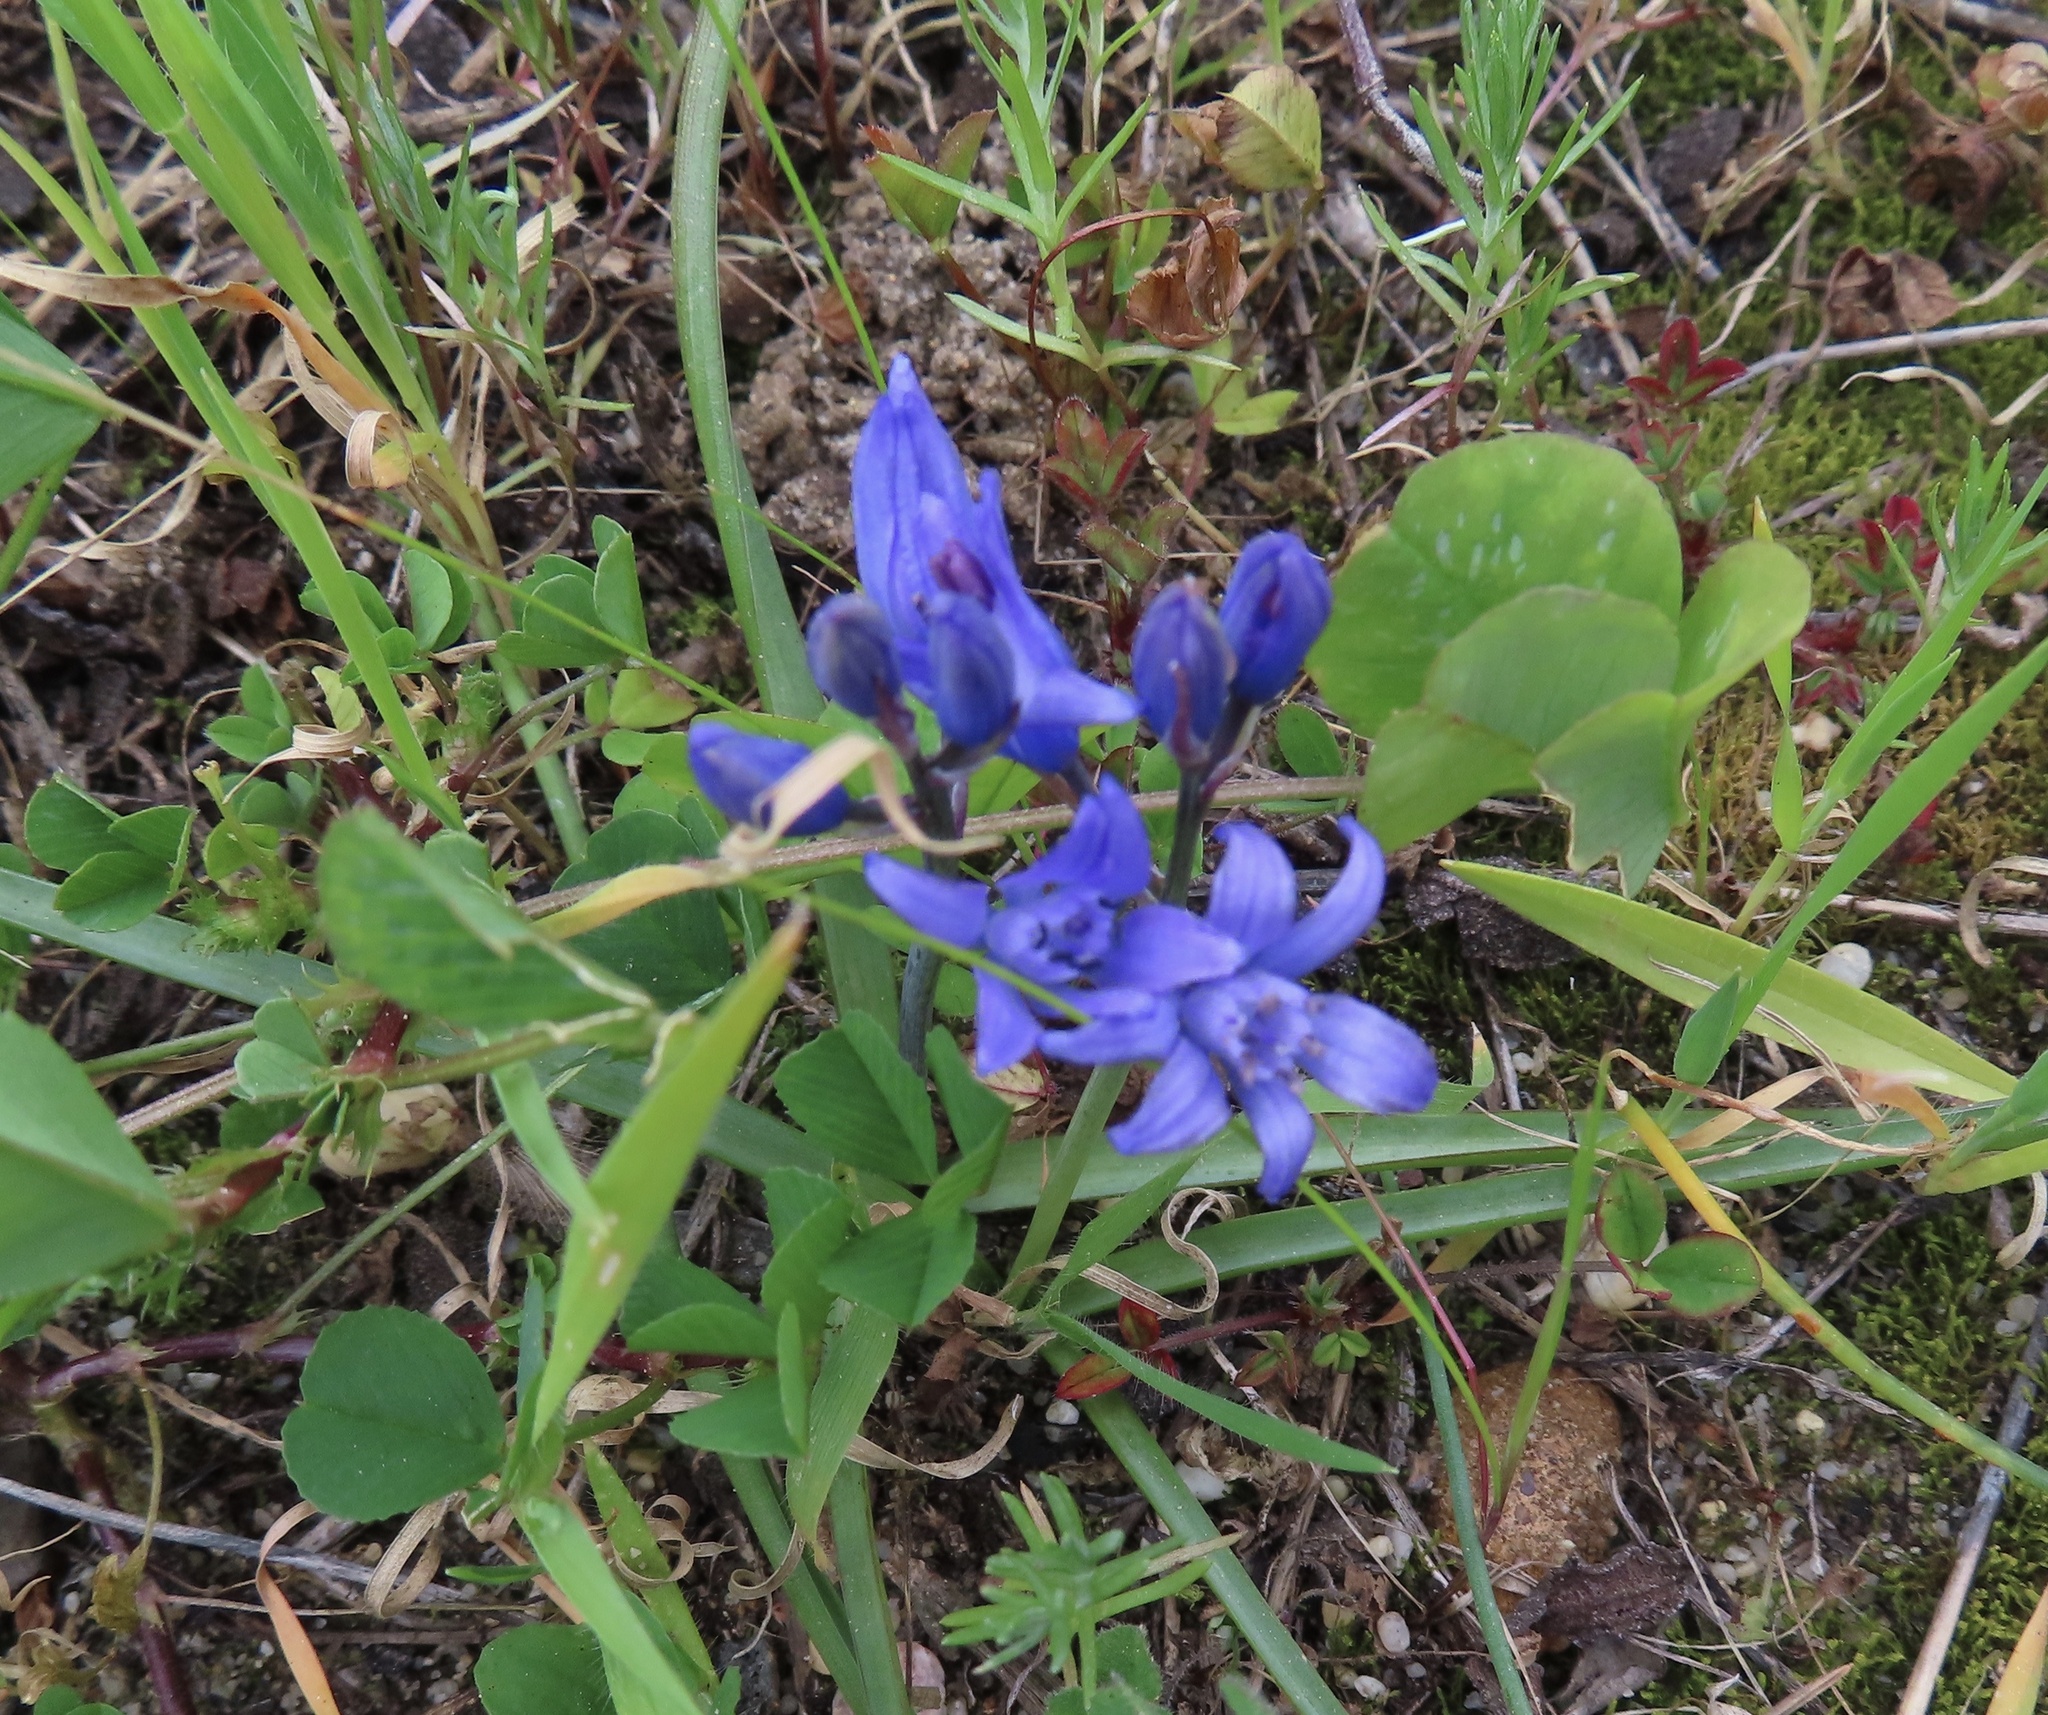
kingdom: Plantae
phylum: Tracheophyta
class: Liliopsida
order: Asparagales
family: Asparagaceae
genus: Scilla
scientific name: Scilla verna
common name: Spring squill
